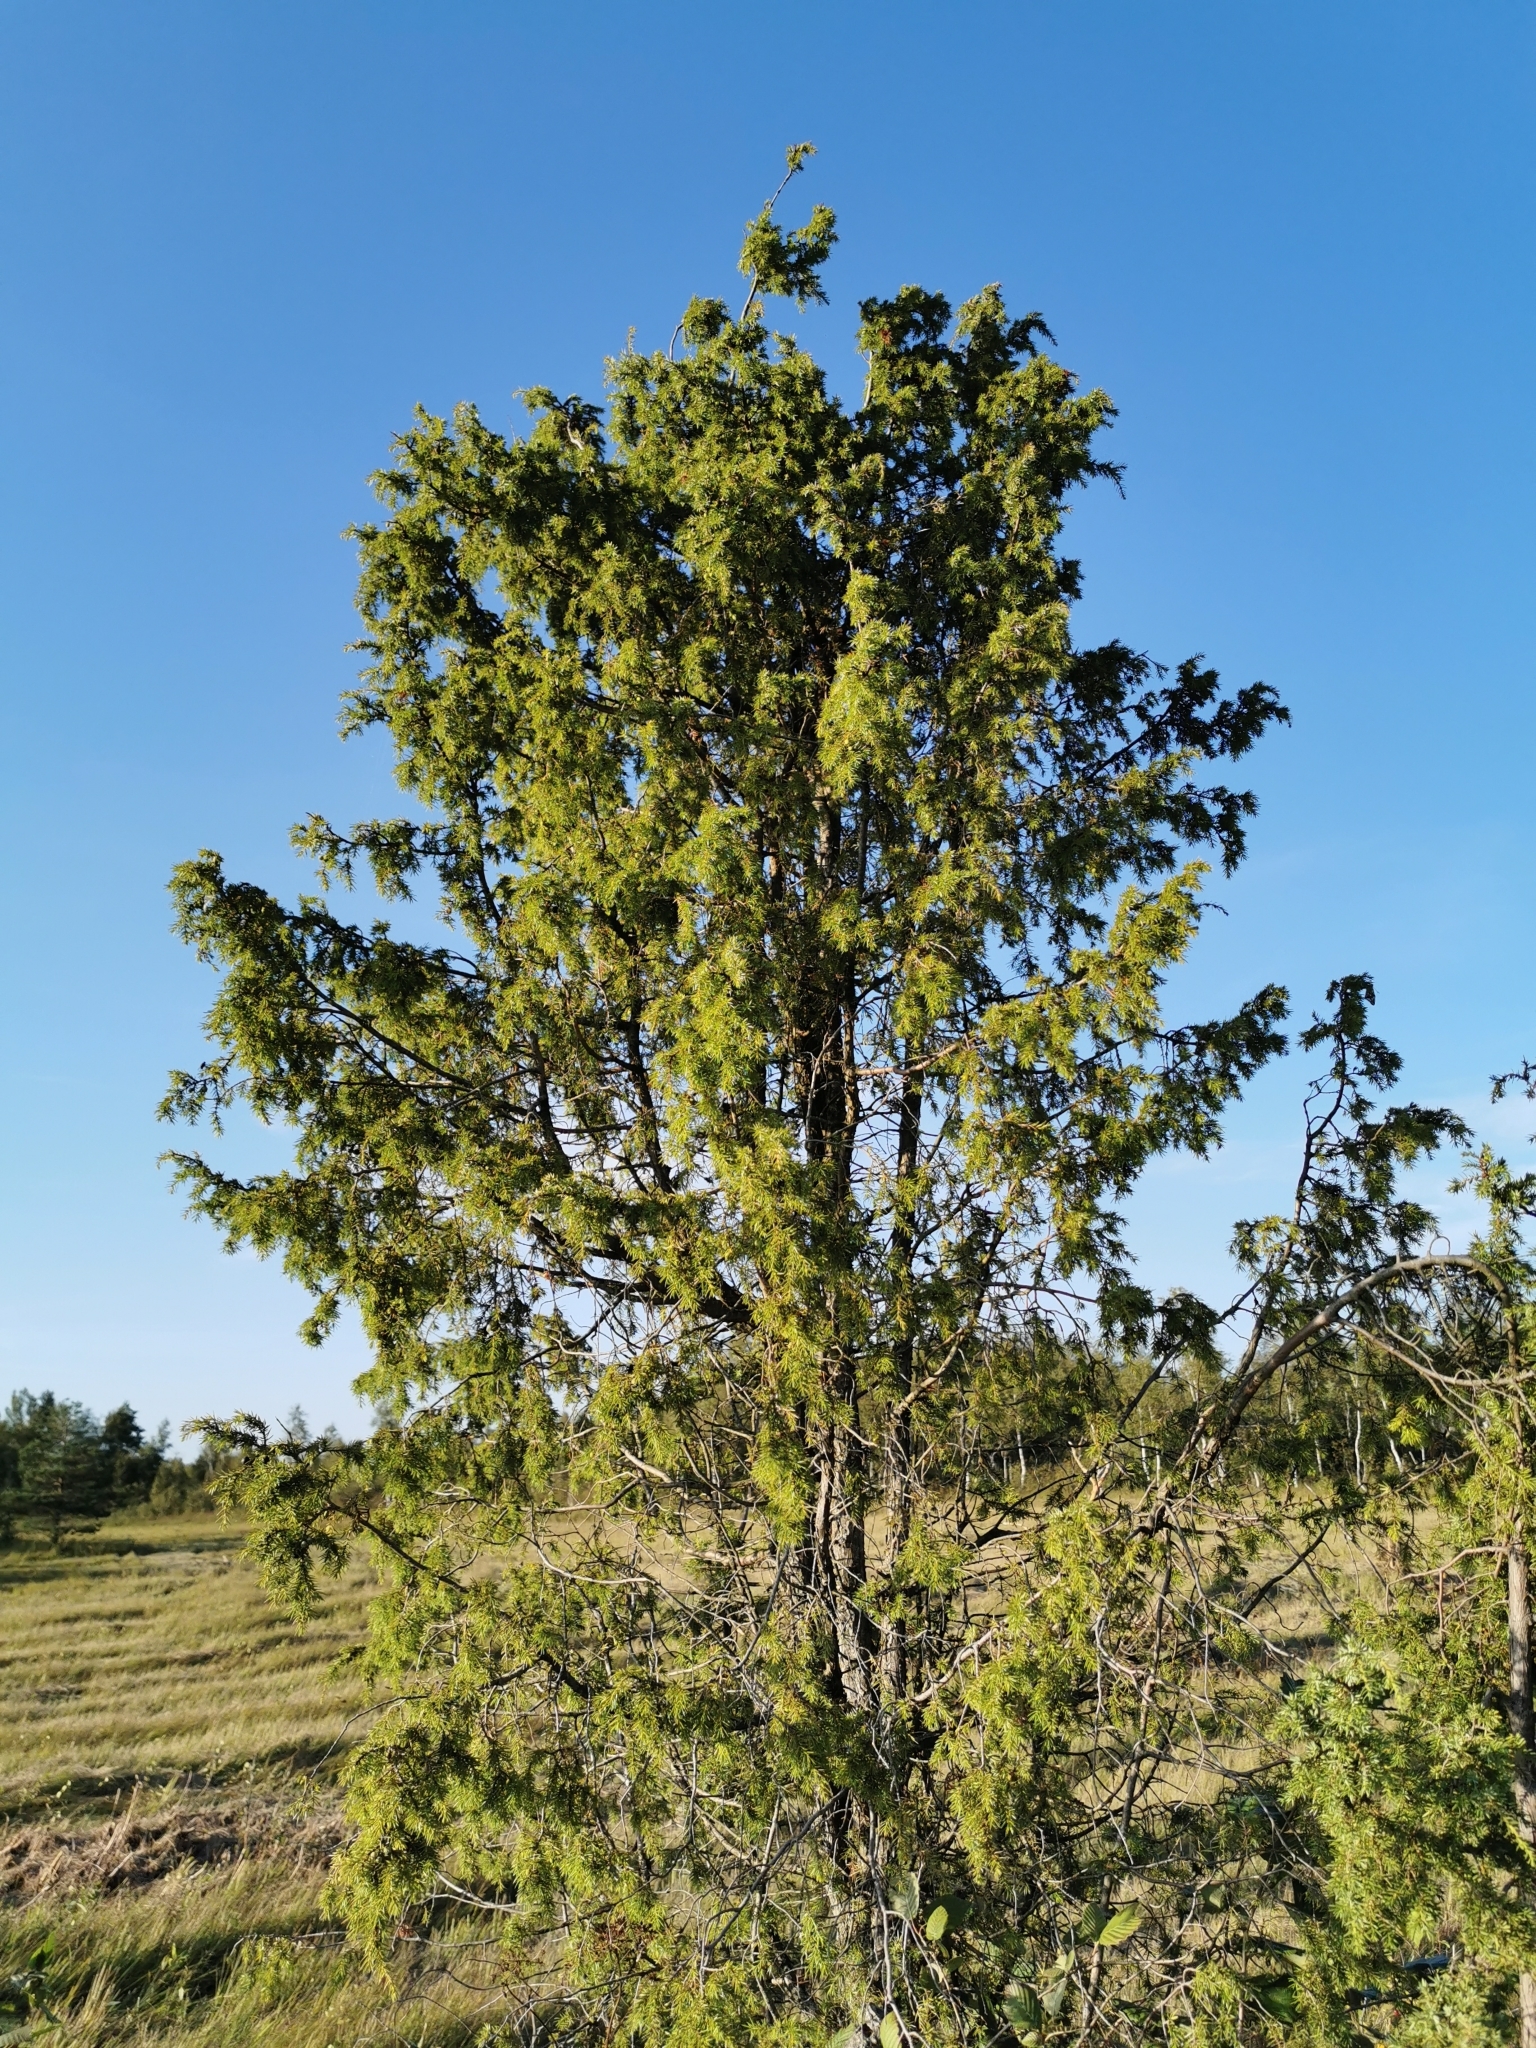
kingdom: Plantae
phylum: Tracheophyta
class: Pinopsida
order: Pinales
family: Cupressaceae
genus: Juniperus
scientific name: Juniperus communis
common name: Common juniper
